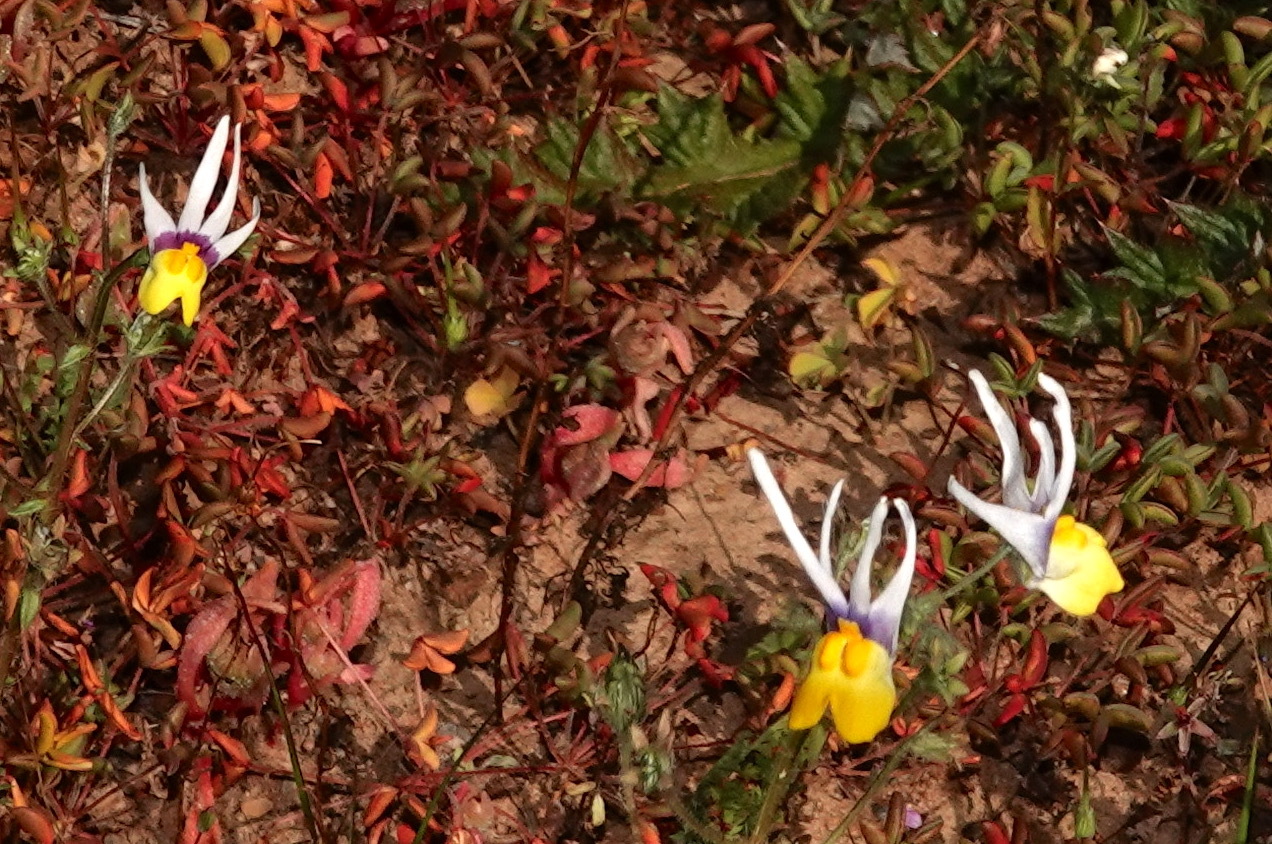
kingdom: Plantae
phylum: Tracheophyta
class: Magnoliopsida
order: Lamiales
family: Scrophulariaceae
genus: Nemesia
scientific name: Nemesia cheiranthus
